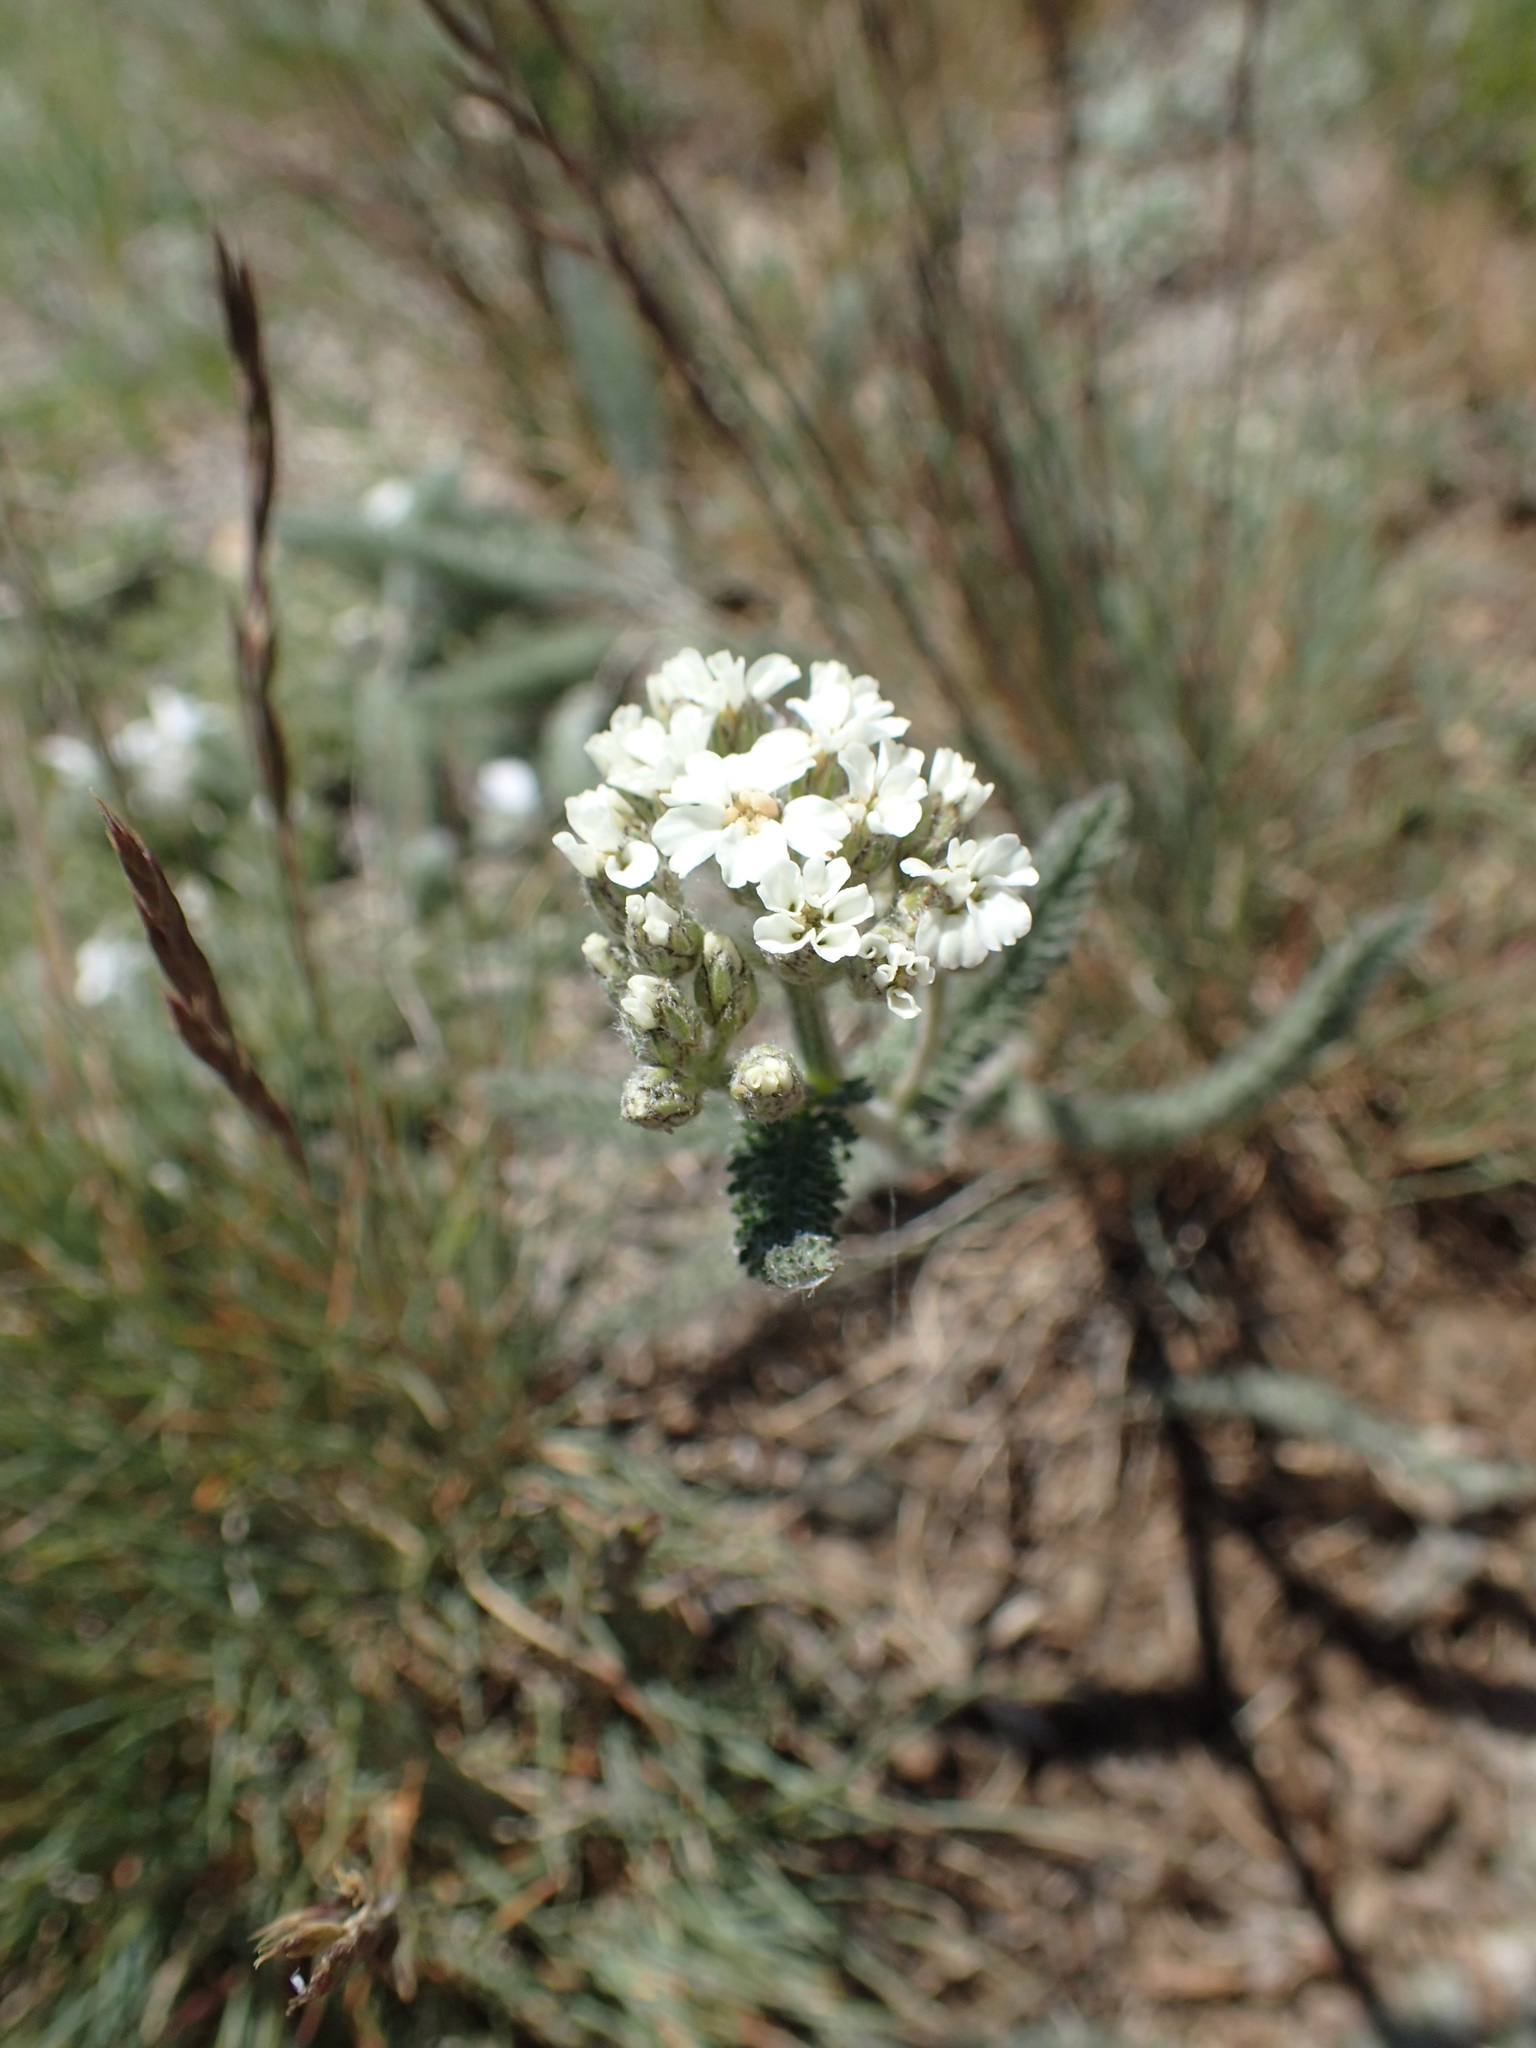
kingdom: Plantae
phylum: Tracheophyta
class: Magnoliopsida
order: Asterales
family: Asteraceae
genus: Achillea
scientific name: Achillea millefolium
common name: Yarrow
